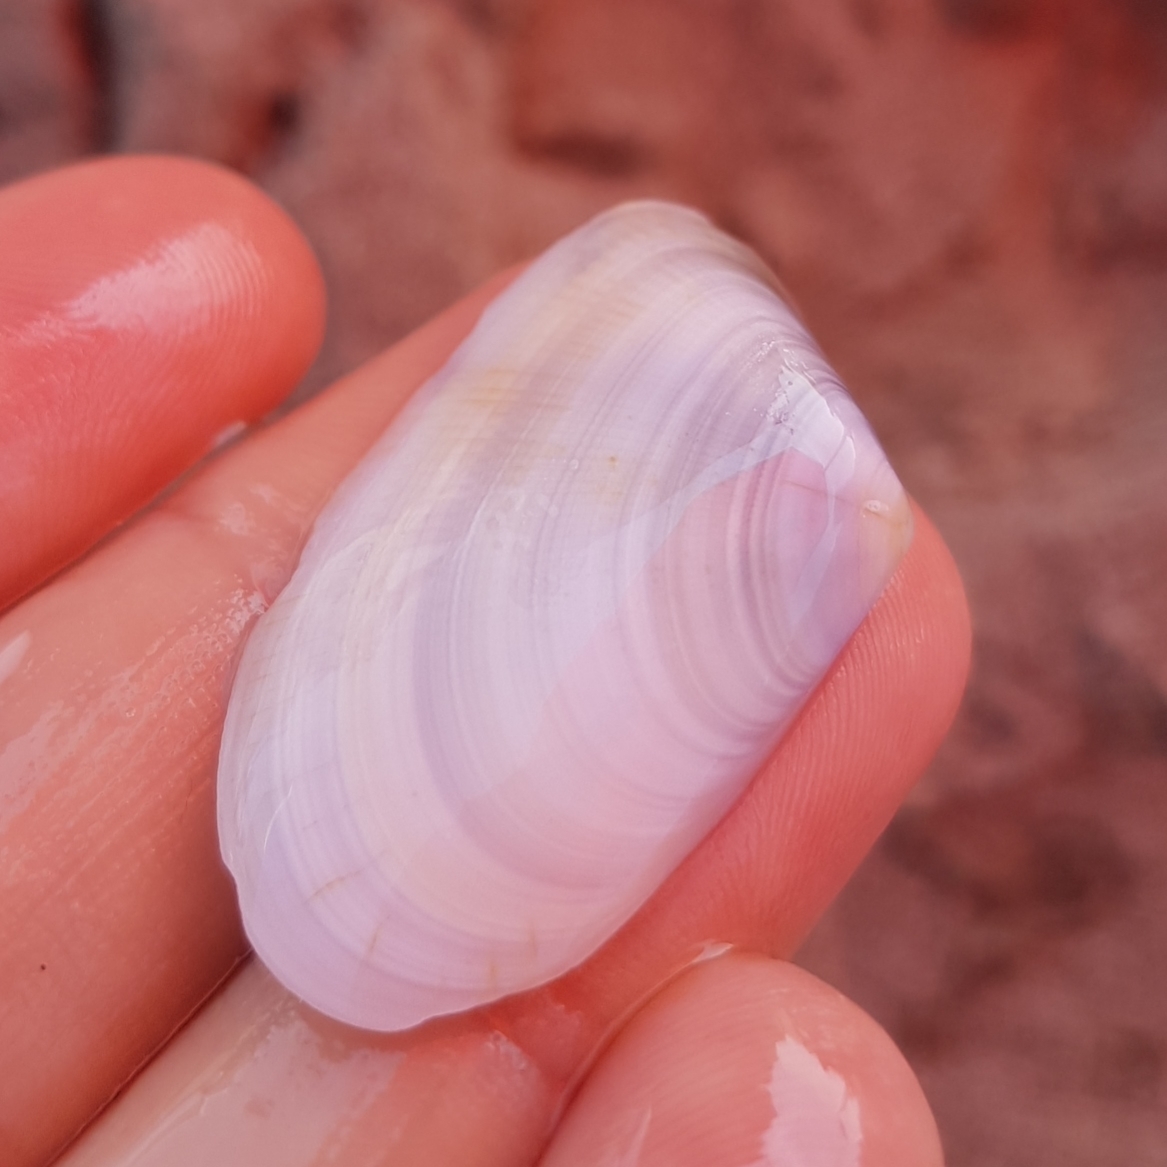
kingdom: Animalia
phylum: Mollusca
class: Bivalvia
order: Cardiida
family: Donacidae
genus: Donax
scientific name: Donax trunculus
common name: Truncate donax
